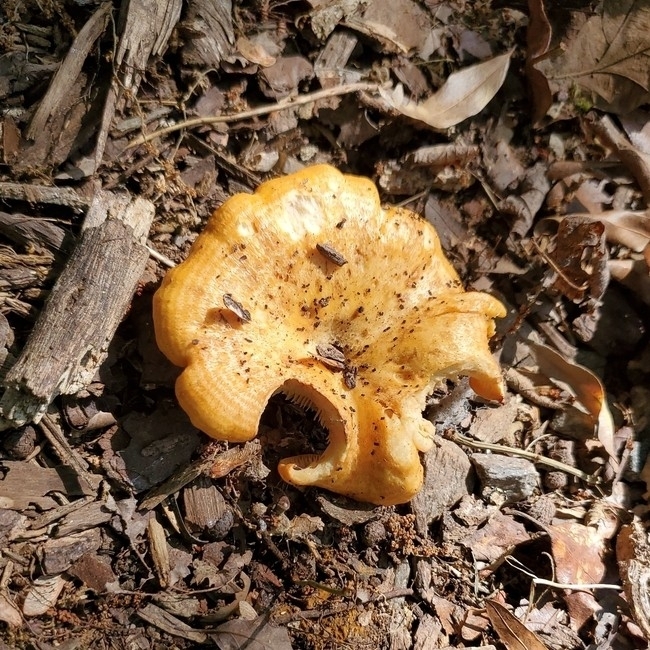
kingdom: Fungi
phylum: Basidiomycota
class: Agaricomycetes
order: Russulales
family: Russulaceae
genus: Lactarius
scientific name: Lactarius psammicola
